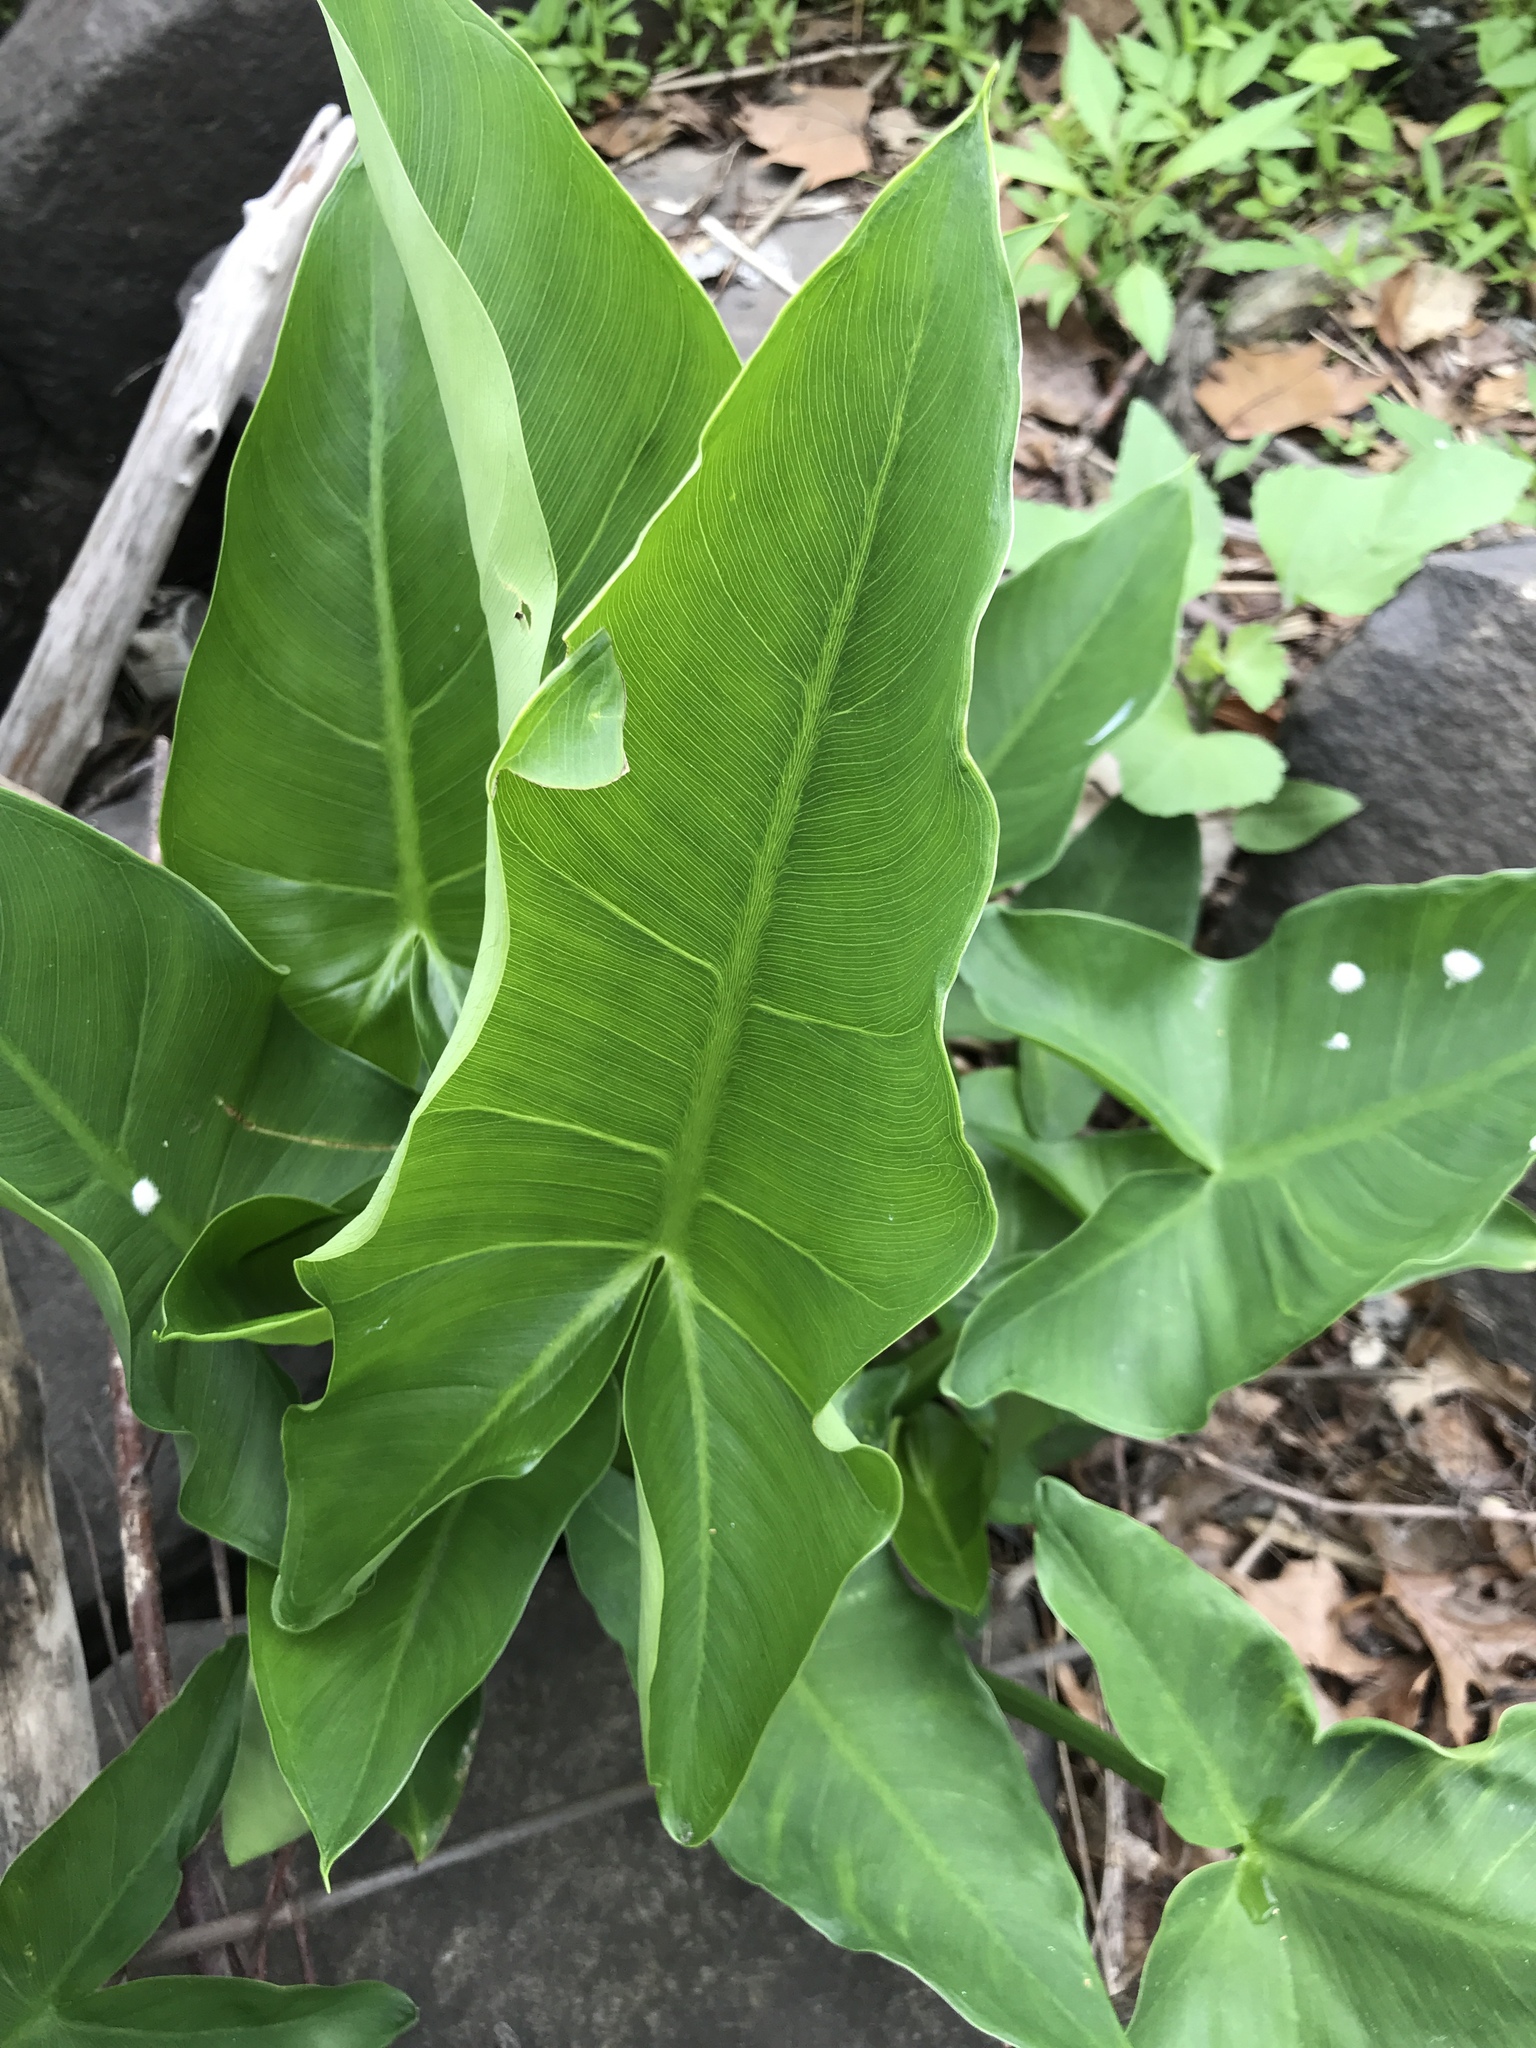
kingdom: Plantae
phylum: Tracheophyta
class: Liliopsida
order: Alismatales
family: Araceae
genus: Peltandra
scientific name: Peltandra virginica
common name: Arrow arum
